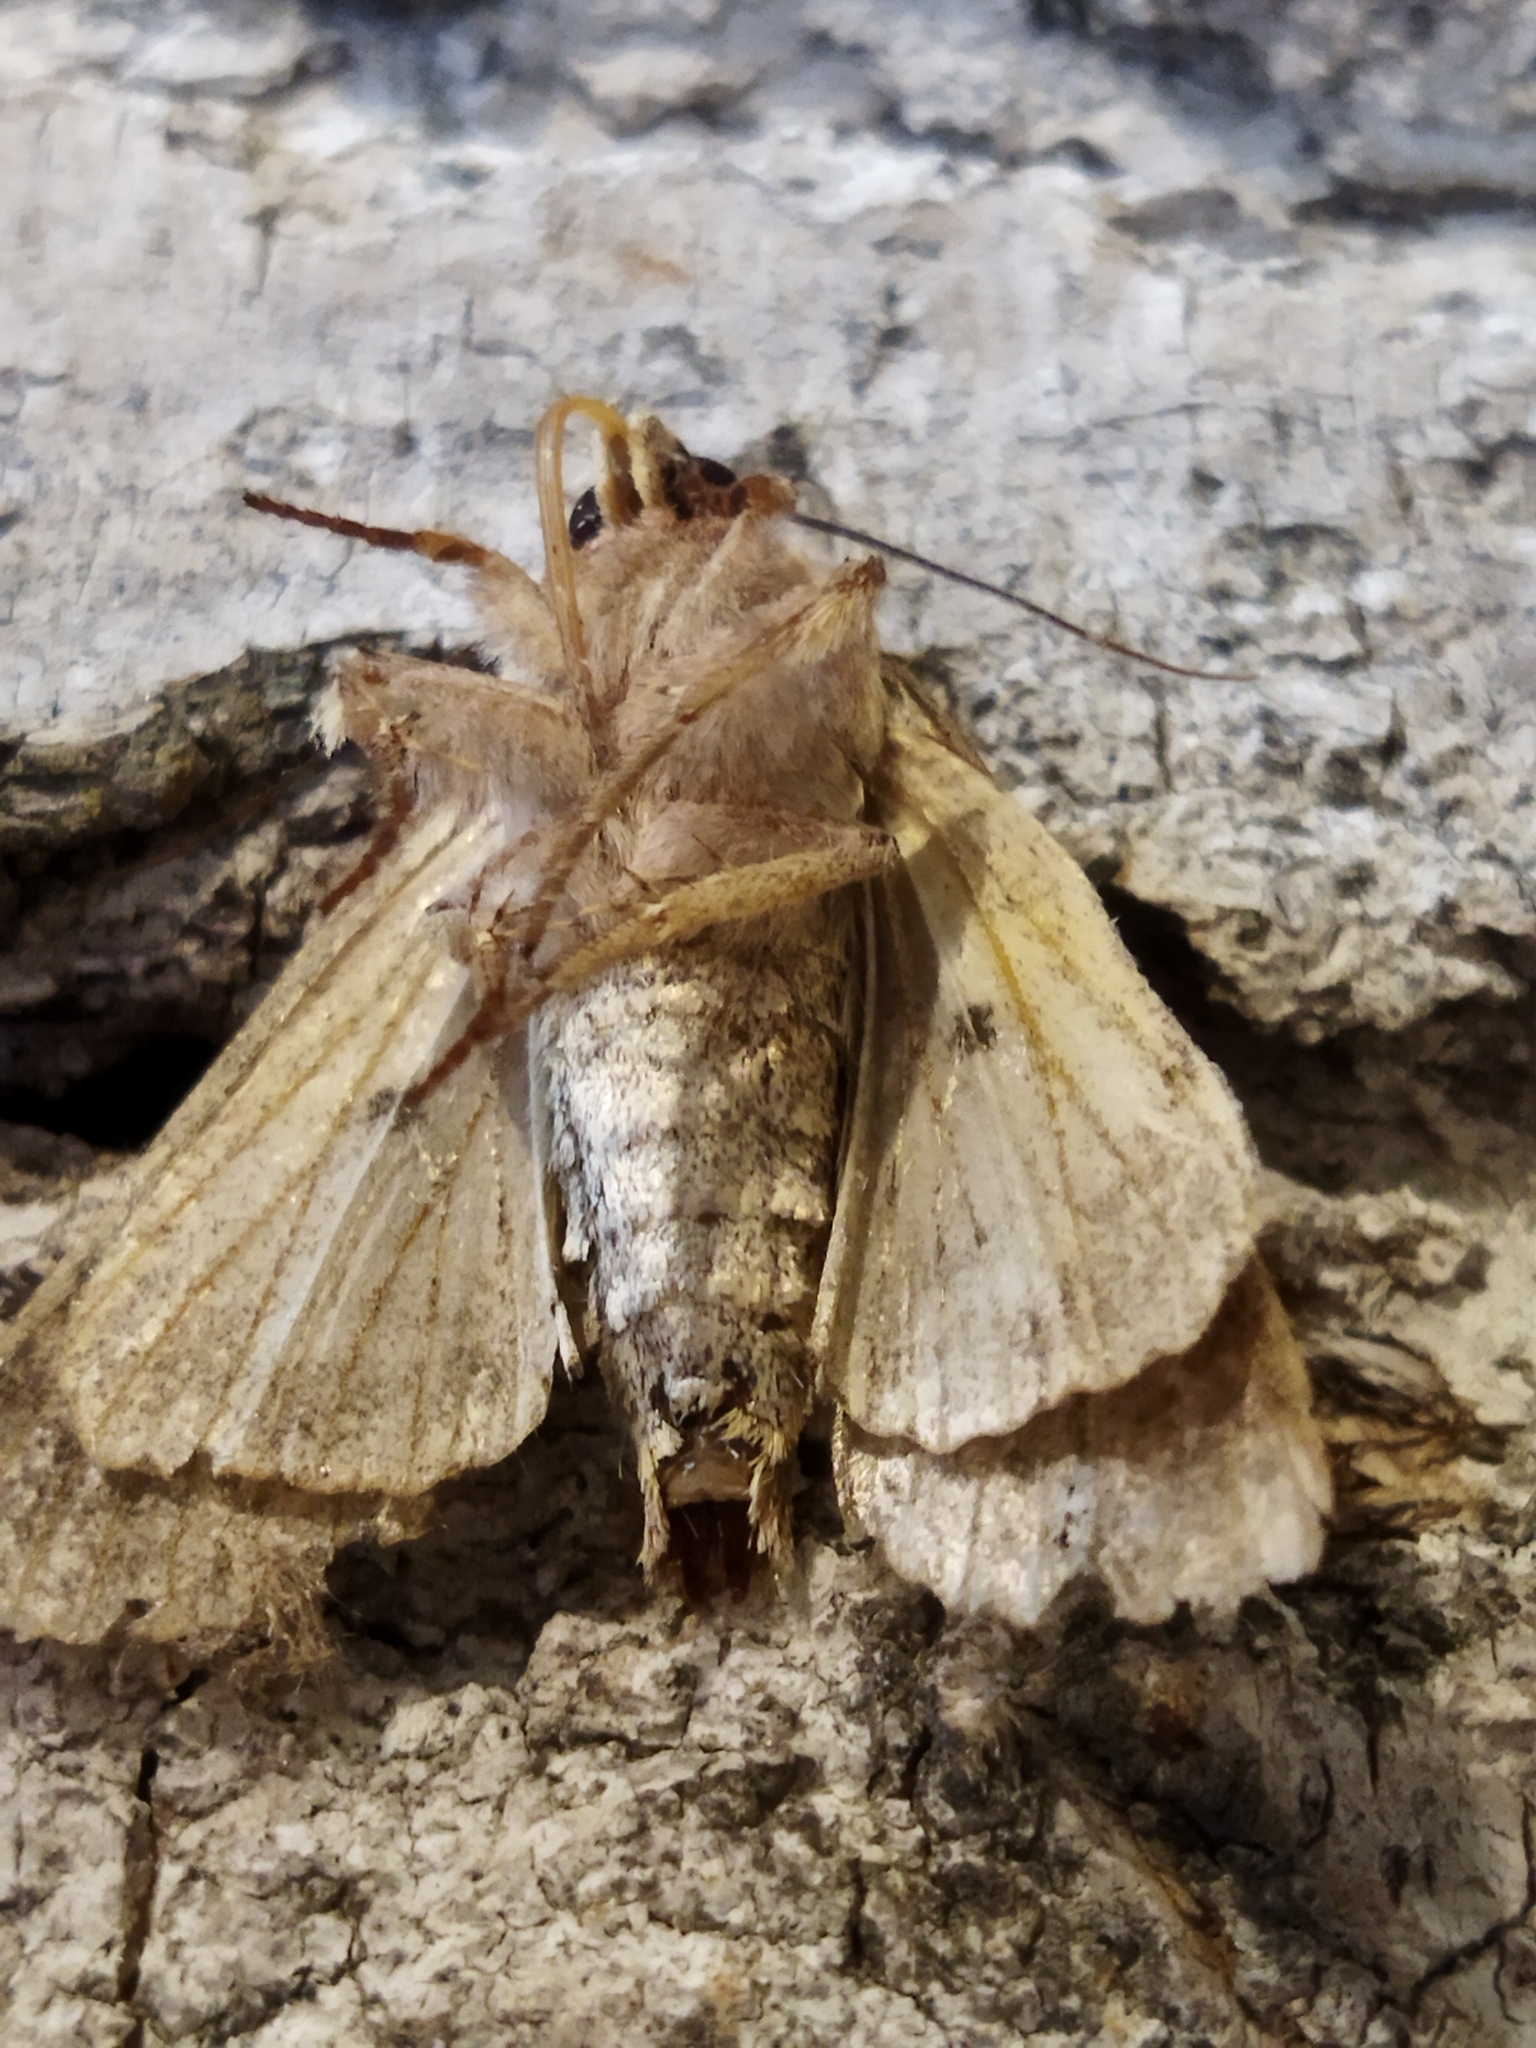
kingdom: Animalia
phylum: Arthropoda
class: Insecta
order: Lepidoptera
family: Noctuidae
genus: Apamea
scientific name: Apamea monoglypha
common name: Dark arches
